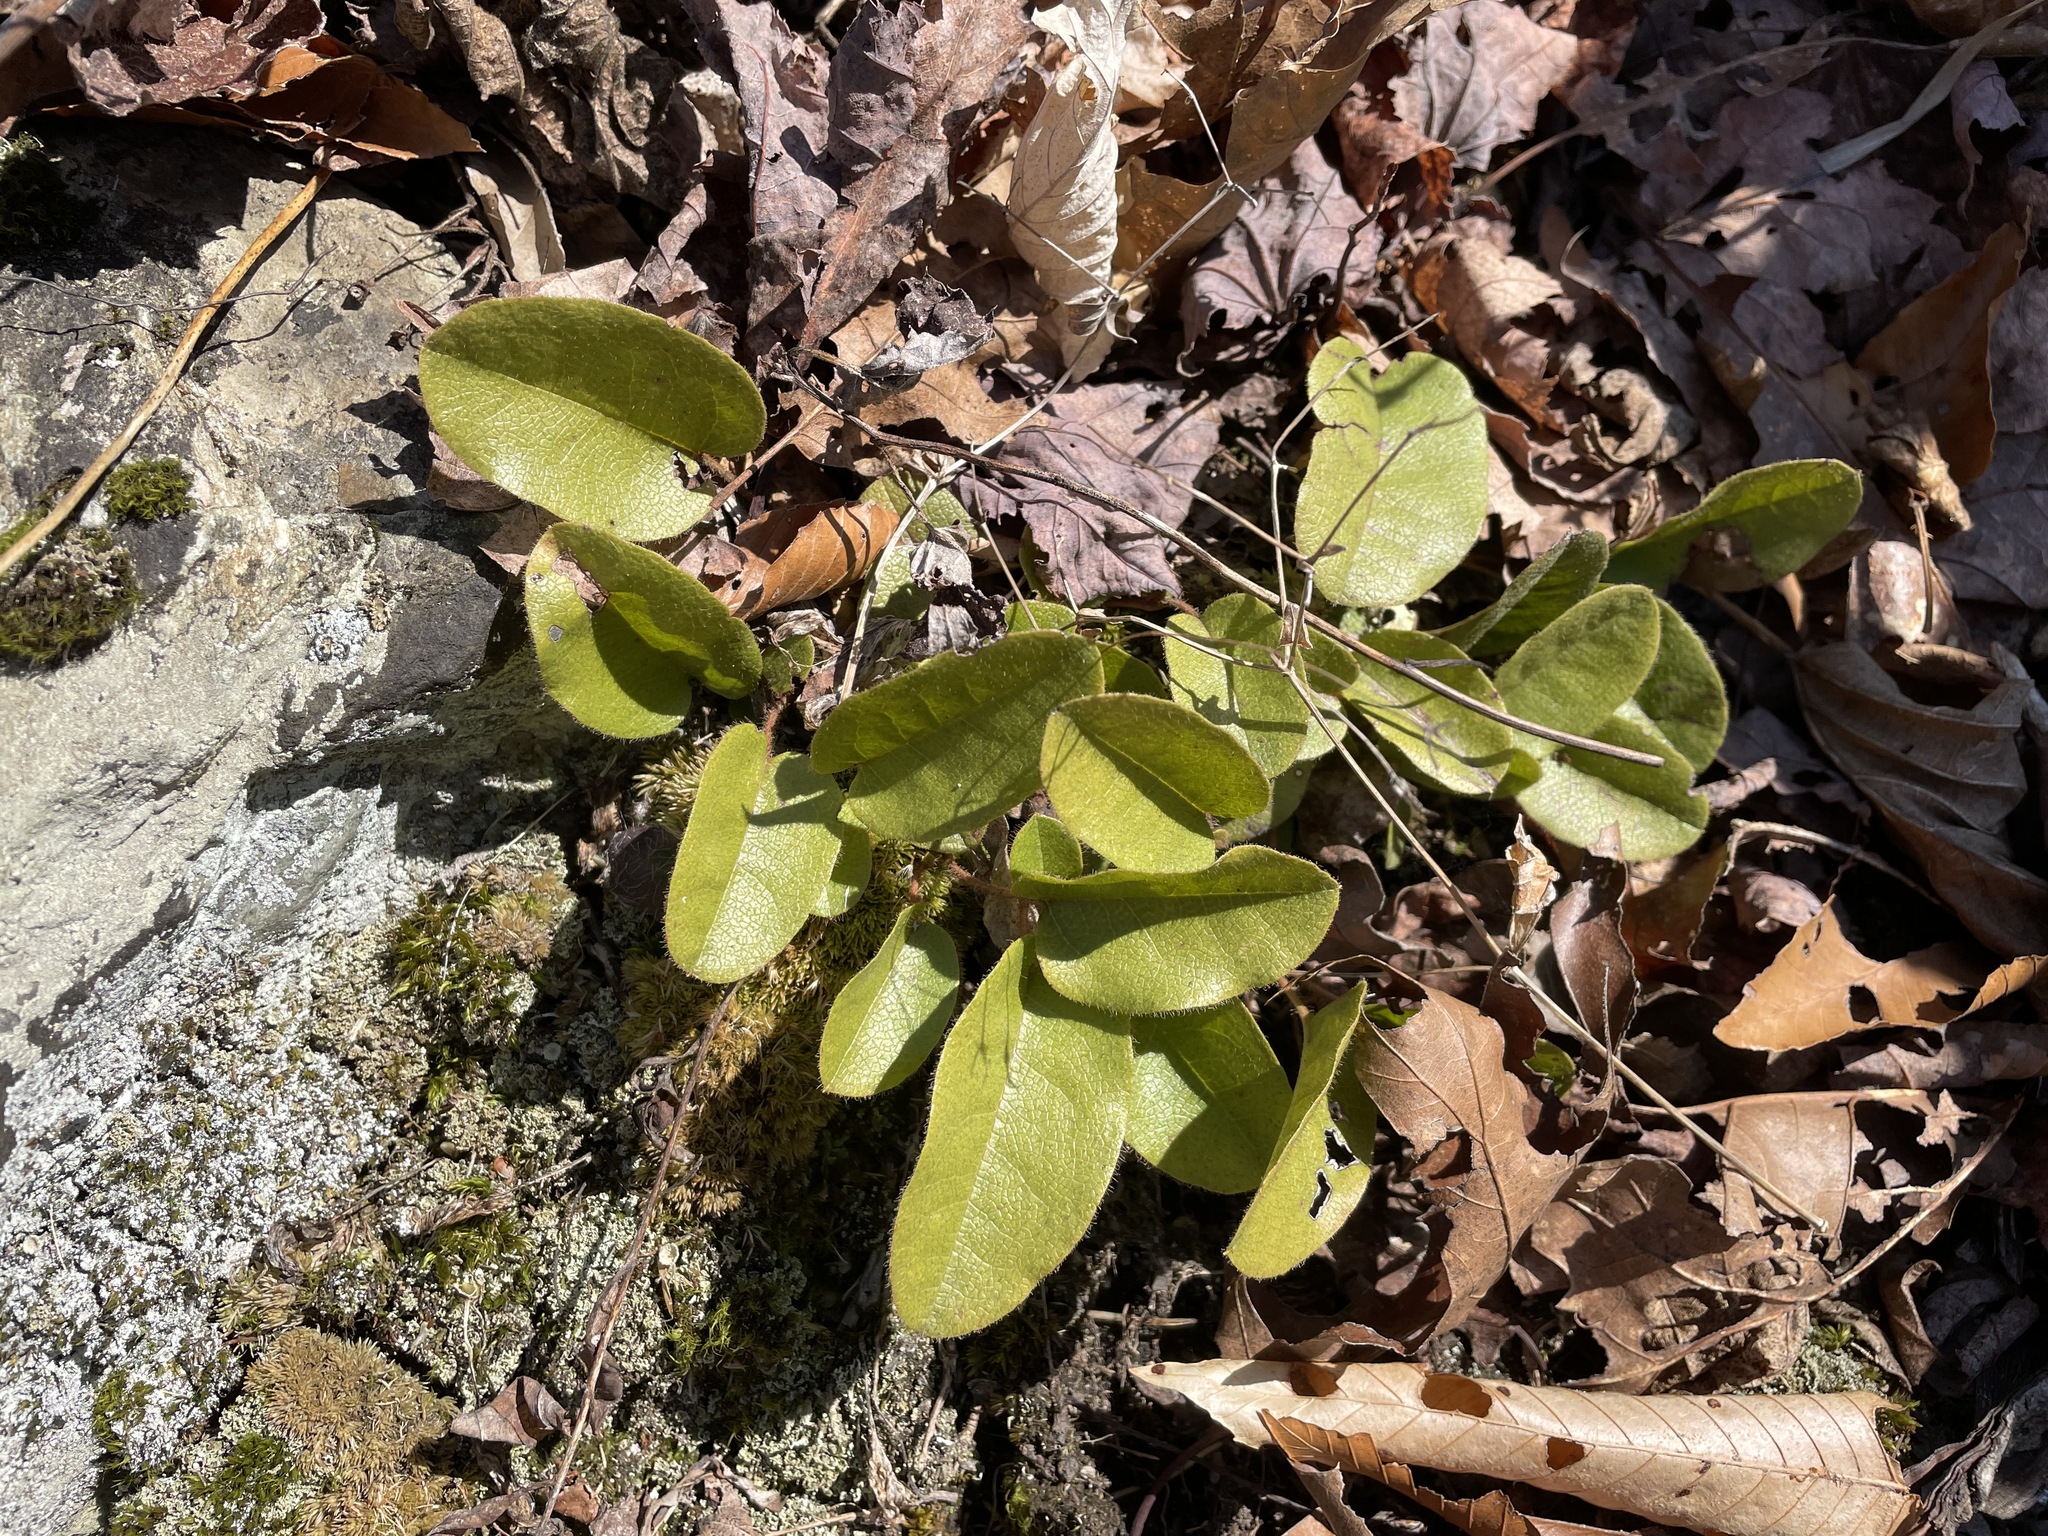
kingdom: Plantae
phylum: Tracheophyta
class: Magnoliopsida
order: Ericales
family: Ericaceae
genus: Epigaea
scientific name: Epigaea repens
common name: Gravelroot
